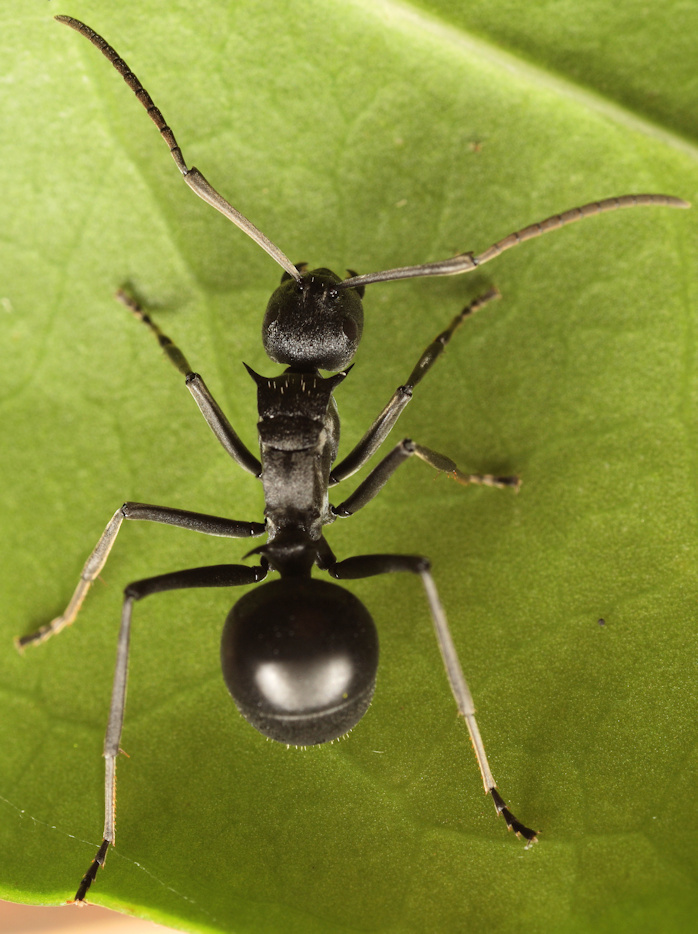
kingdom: Animalia
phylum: Arthropoda
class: Insecta
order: Hymenoptera
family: Formicidae
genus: Polyrhachis
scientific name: Polyrhachis gagates
